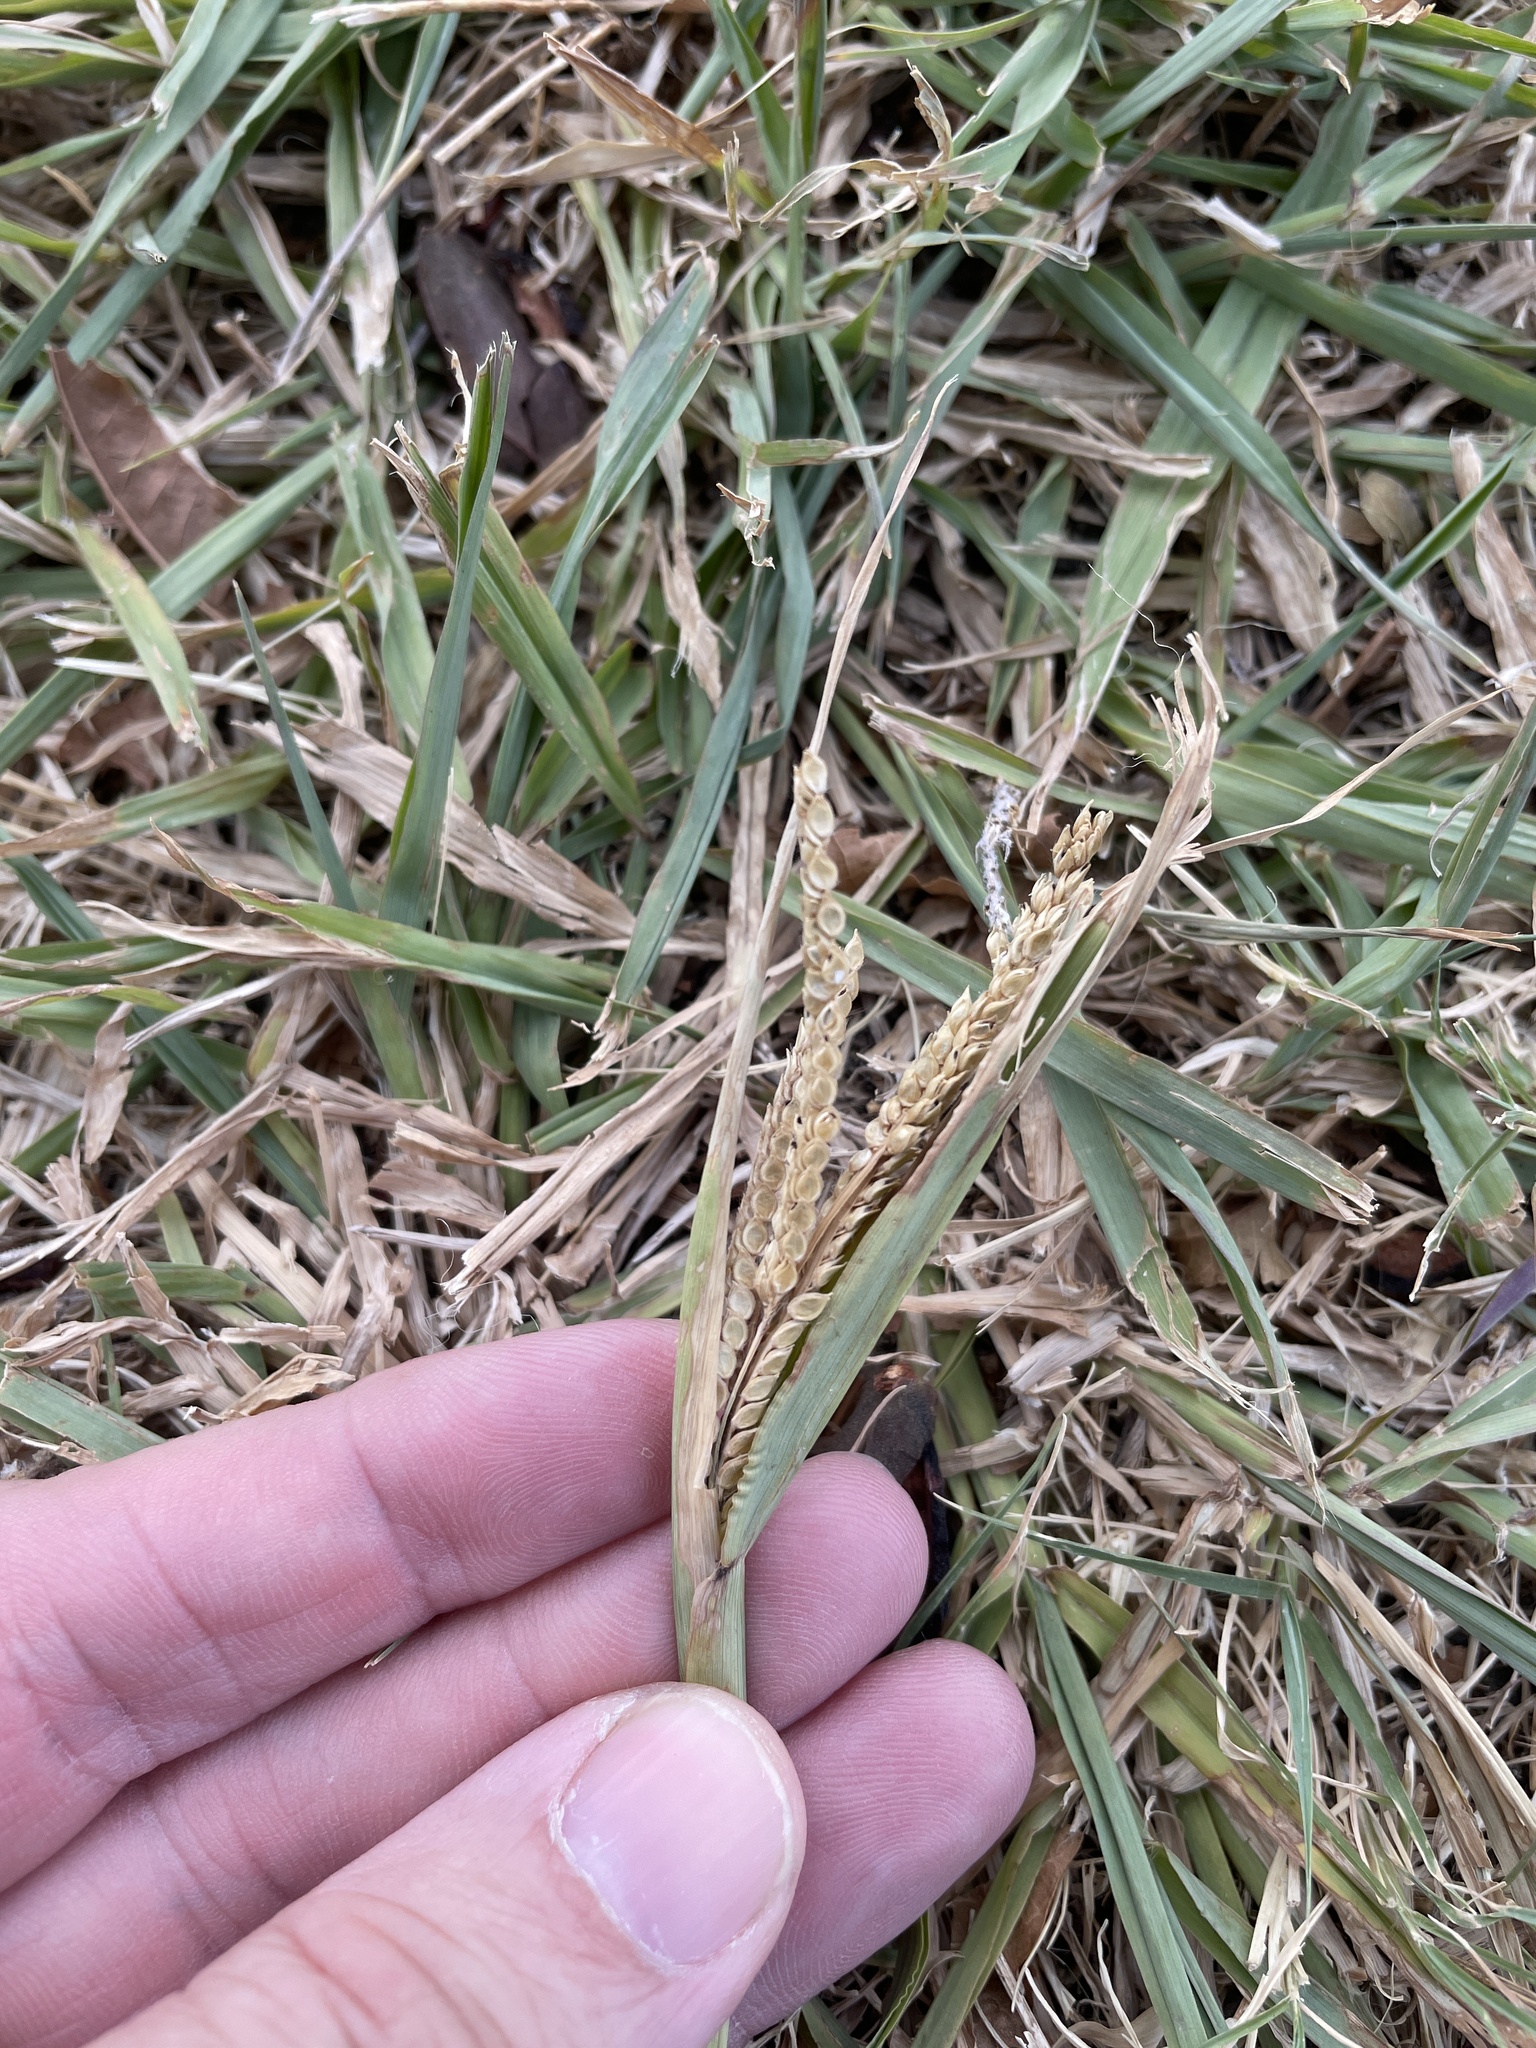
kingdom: Plantae
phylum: Tracheophyta
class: Liliopsida
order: Poales
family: Poaceae
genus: Paspalum
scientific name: Paspalum dilatatum
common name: Dallisgrass
